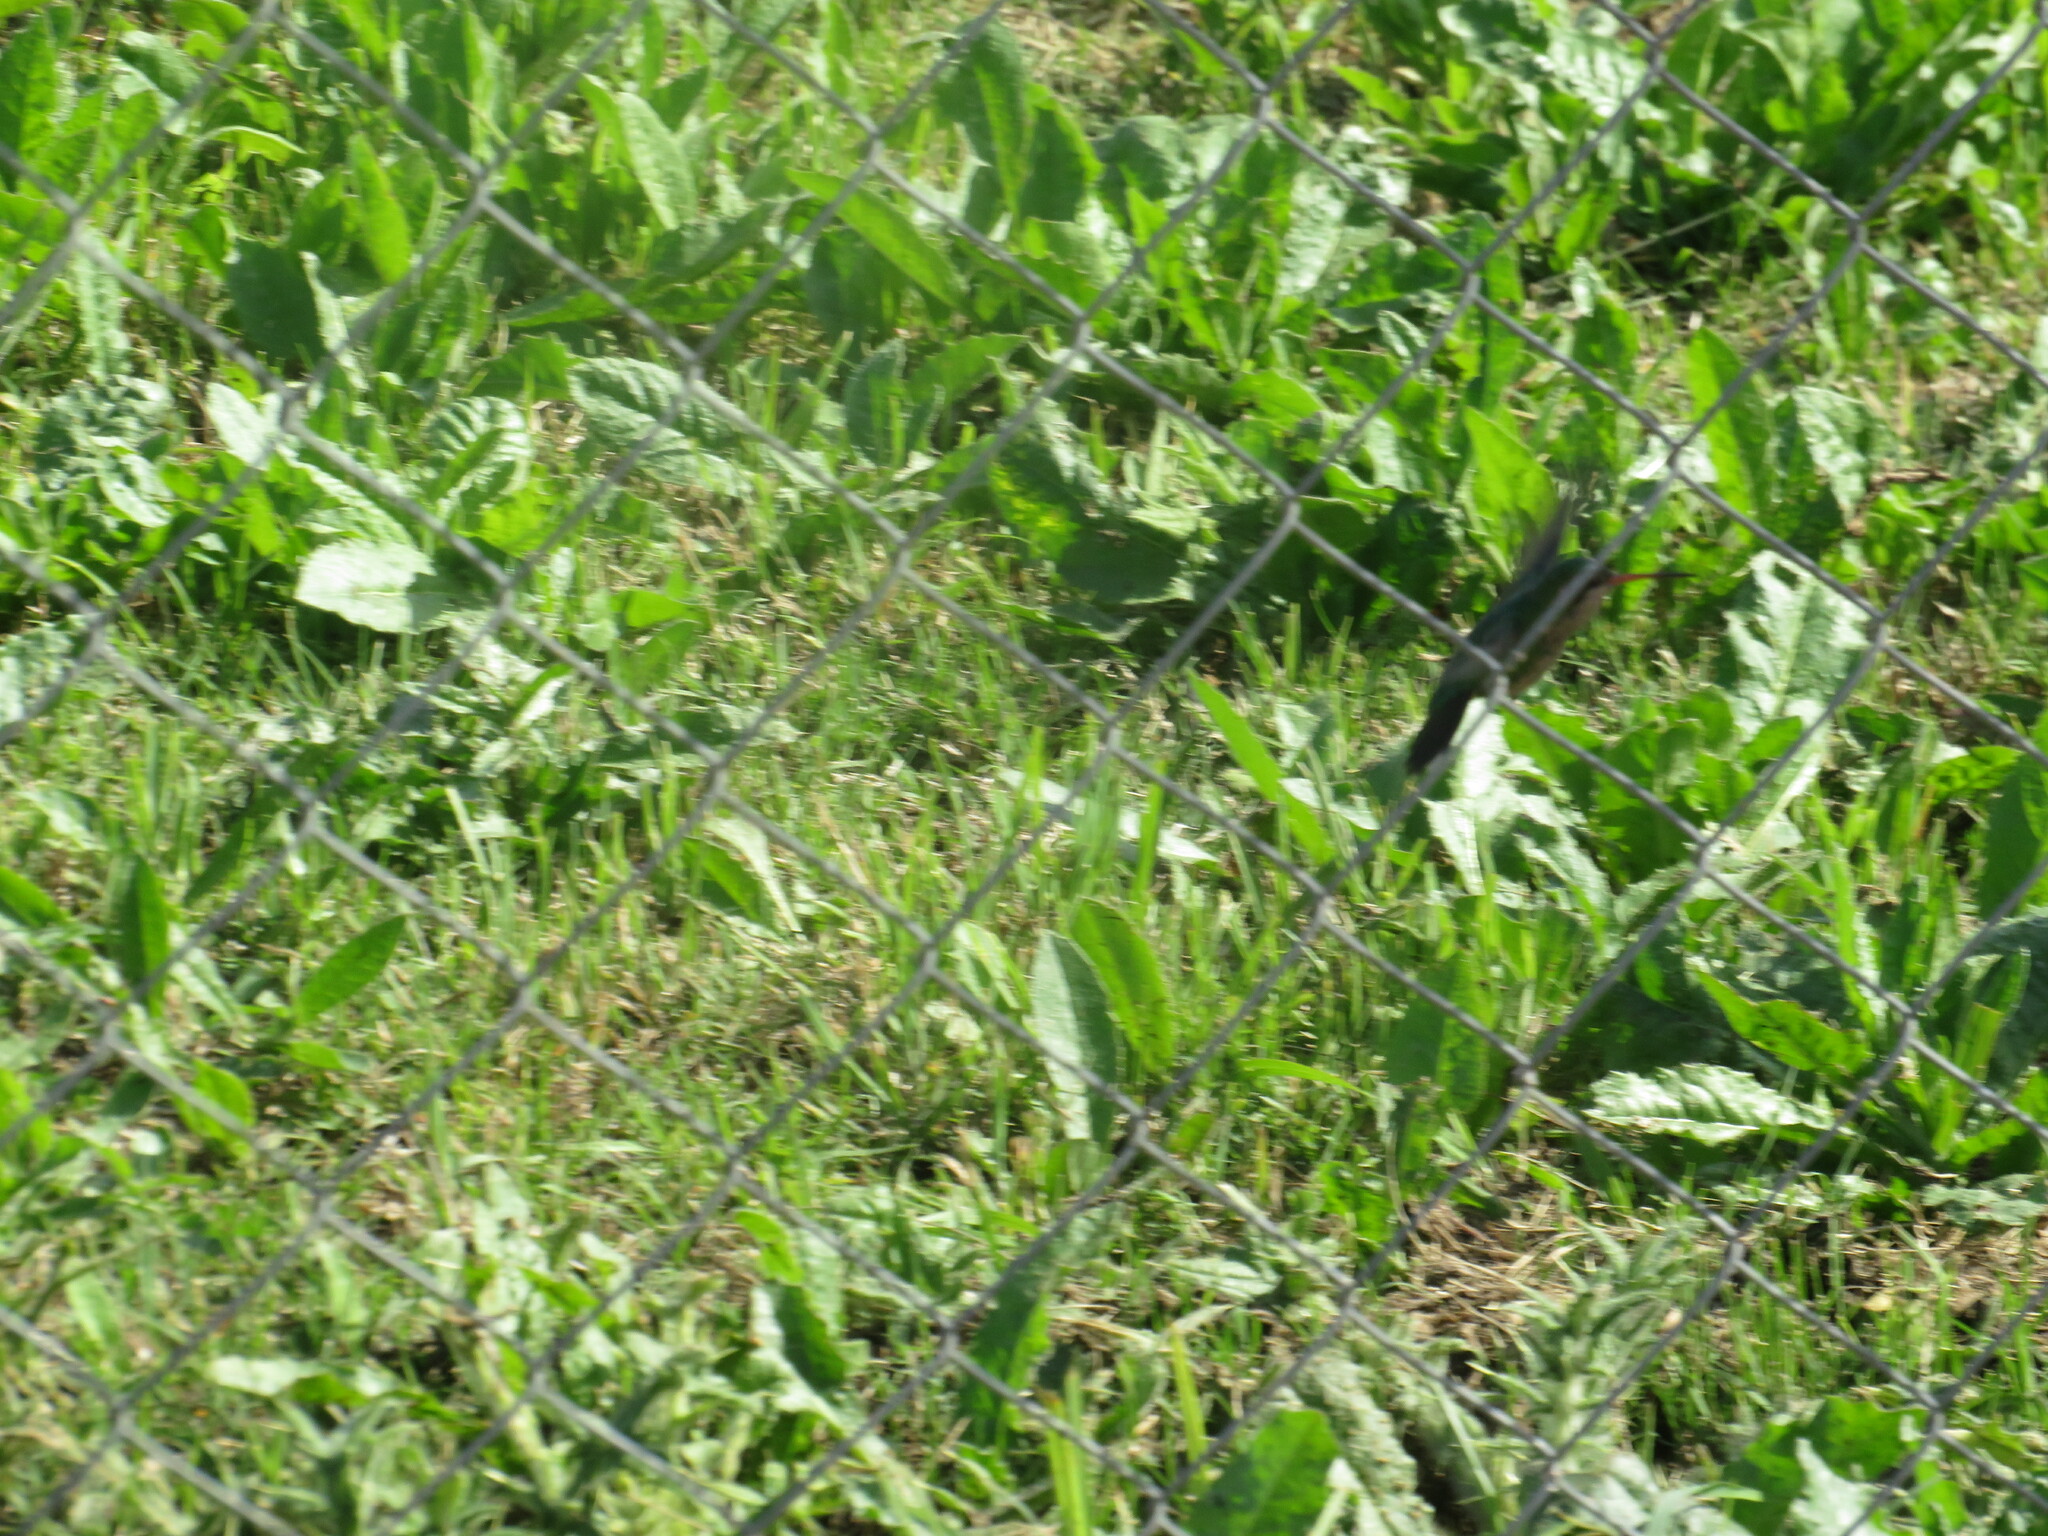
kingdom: Animalia
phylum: Chordata
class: Aves
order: Apodiformes
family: Trochilidae
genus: Chlorostilbon
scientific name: Chlorostilbon lucidus
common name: Glittering-bellied emerald
